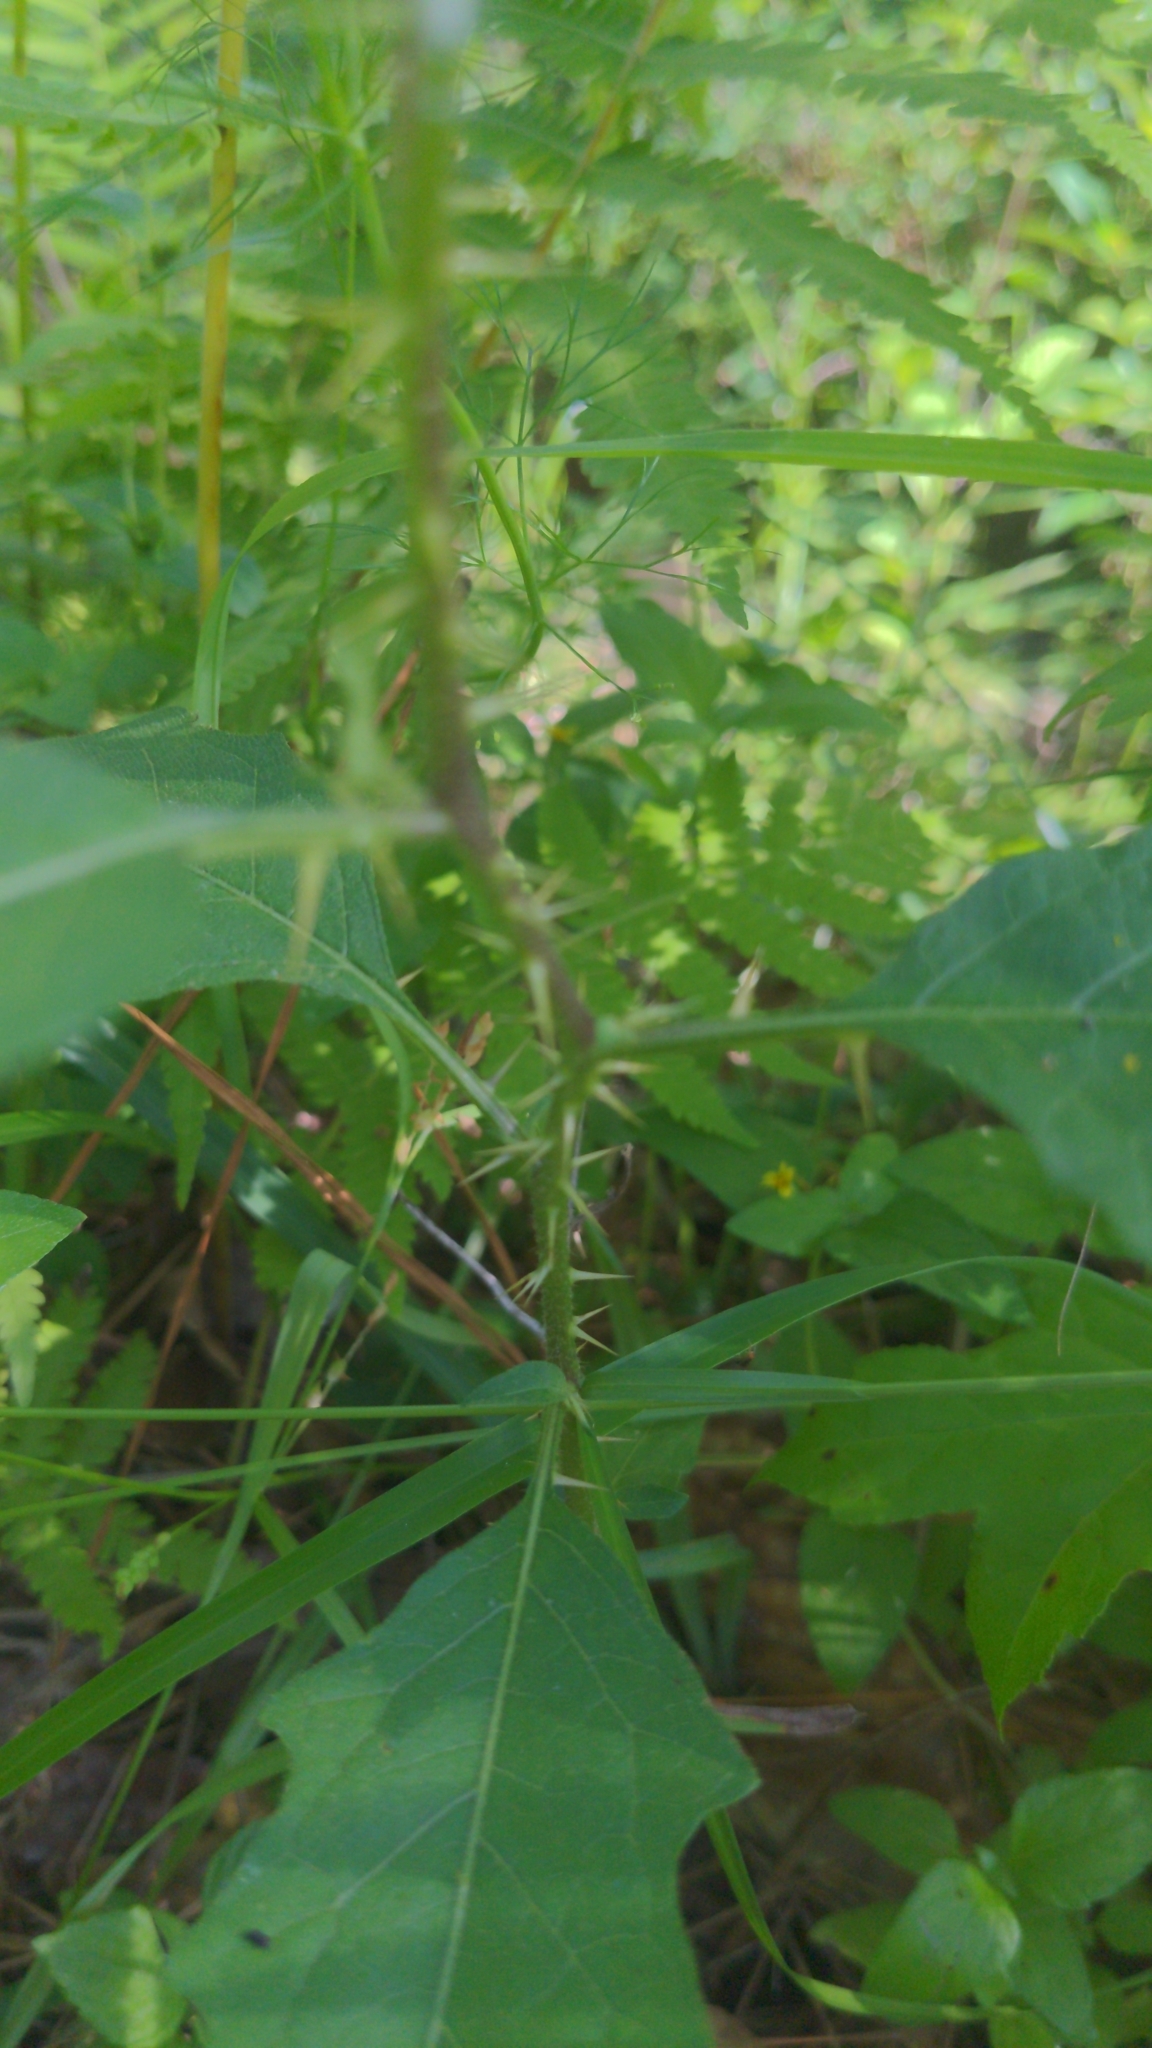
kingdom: Plantae
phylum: Tracheophyta
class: Magnoliopsida
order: Solanales
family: Solanaceae
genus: Solanum
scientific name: Solanum carolinense
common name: Horse-nettle
